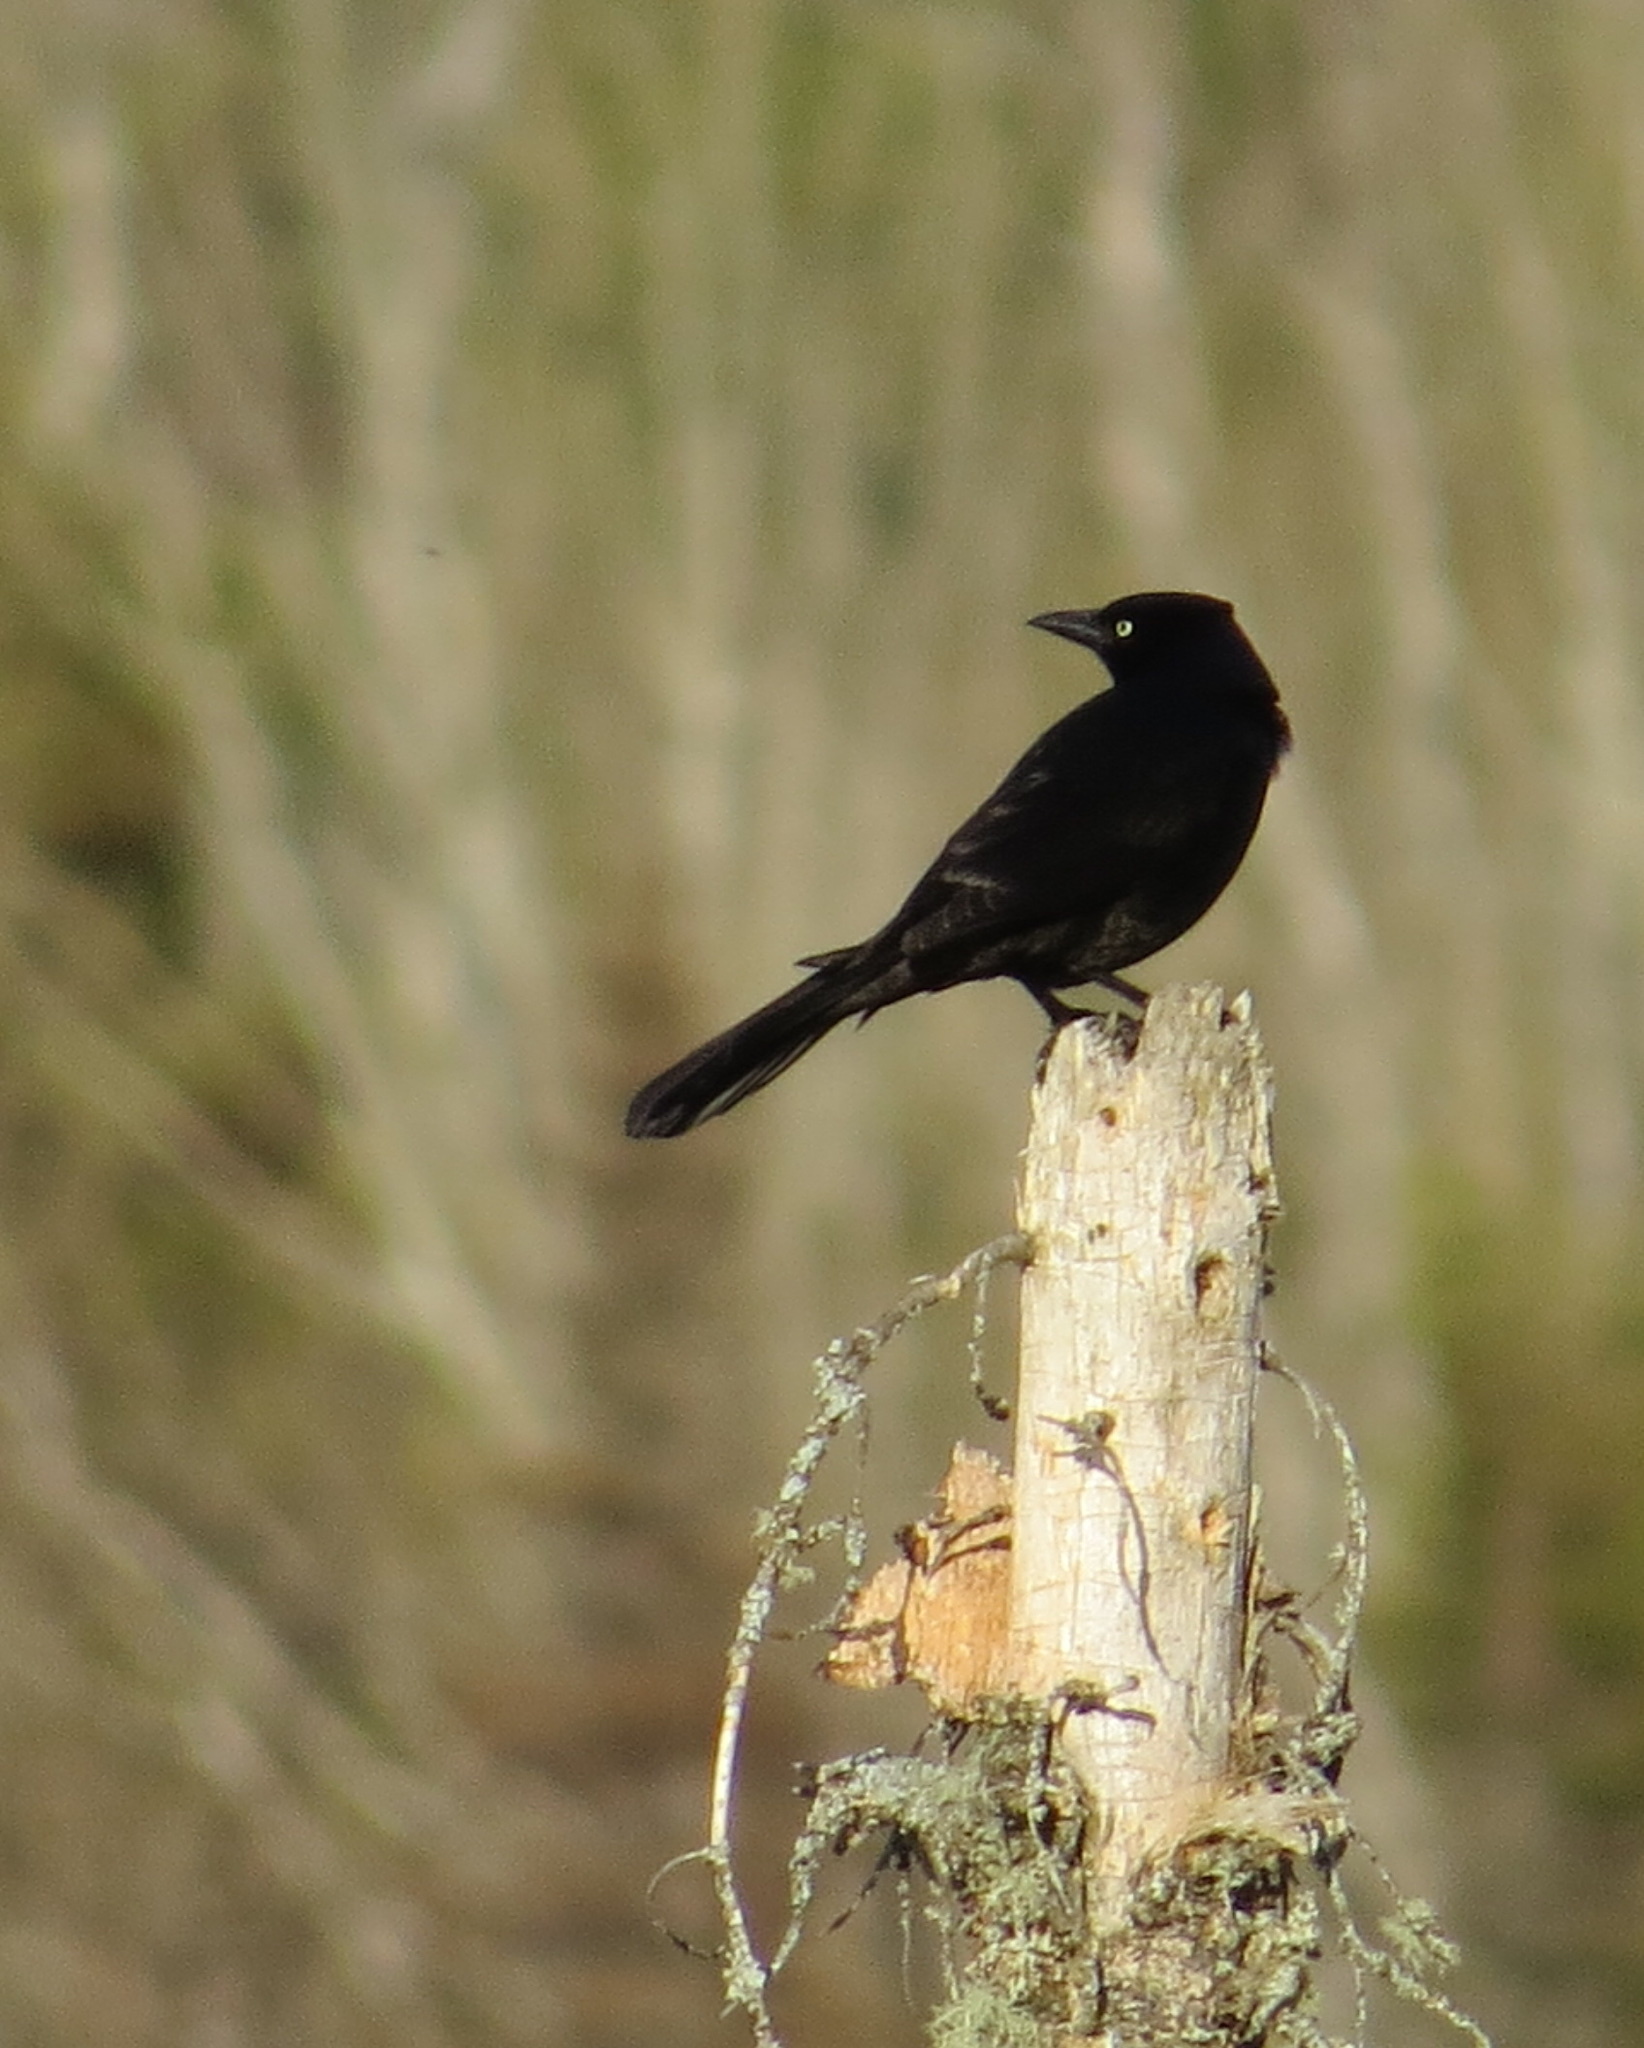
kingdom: Animalia
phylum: Chordata
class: Aves
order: Passeriformes
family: Icteridae
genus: Quiscalus
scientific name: Quiscalus quiscula
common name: Common grackle
